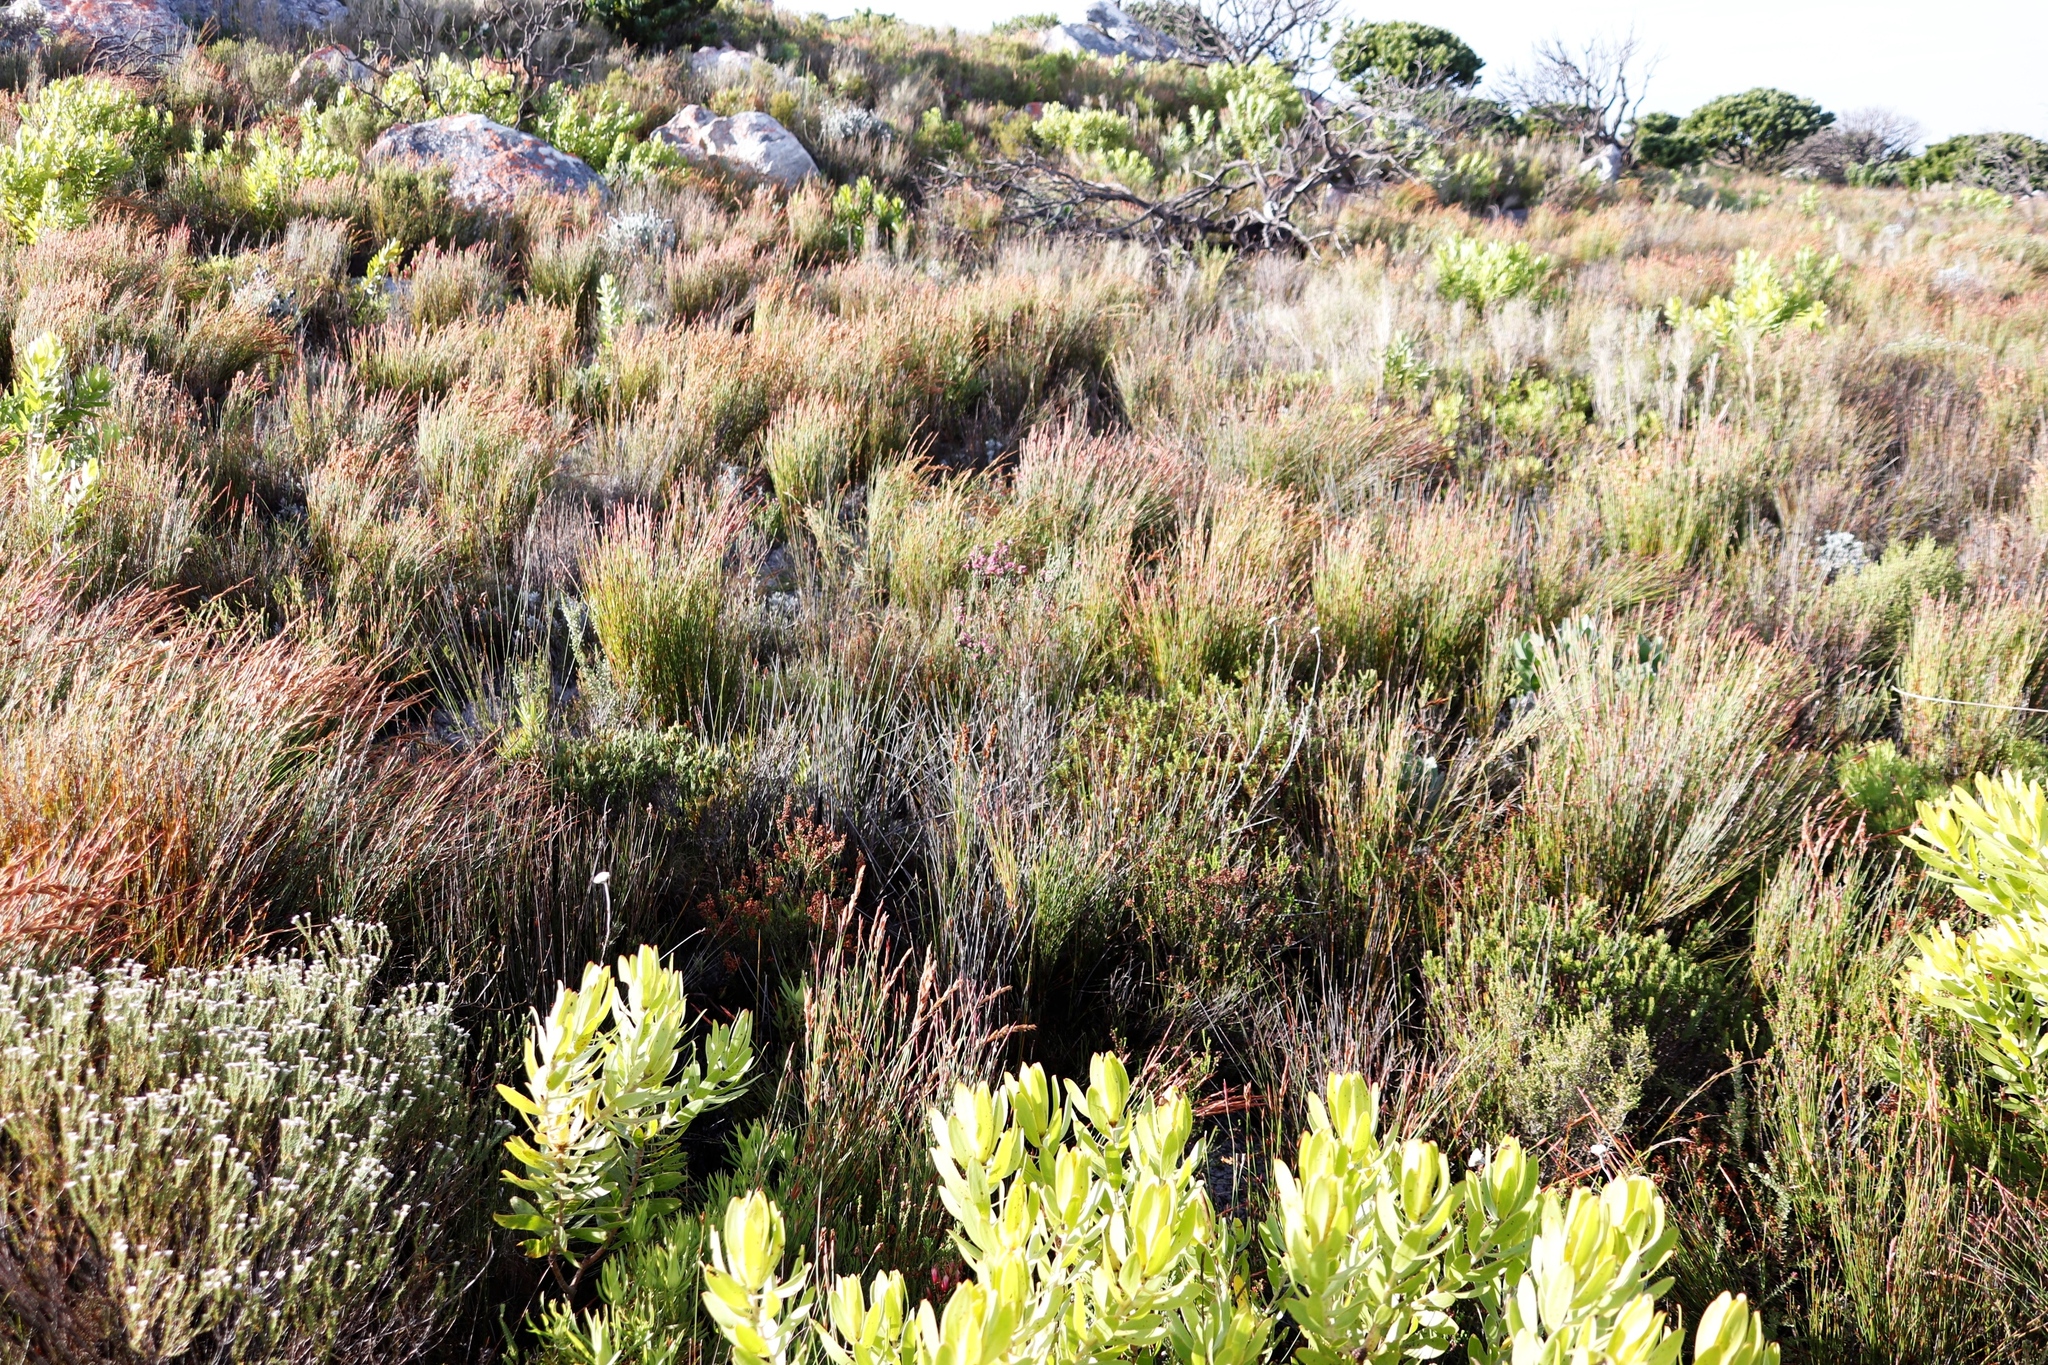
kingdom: Plantae
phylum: Tracheophyta
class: Liliopsida
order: Poales
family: Restionaceae
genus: Elegia
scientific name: Elegia stipularis
